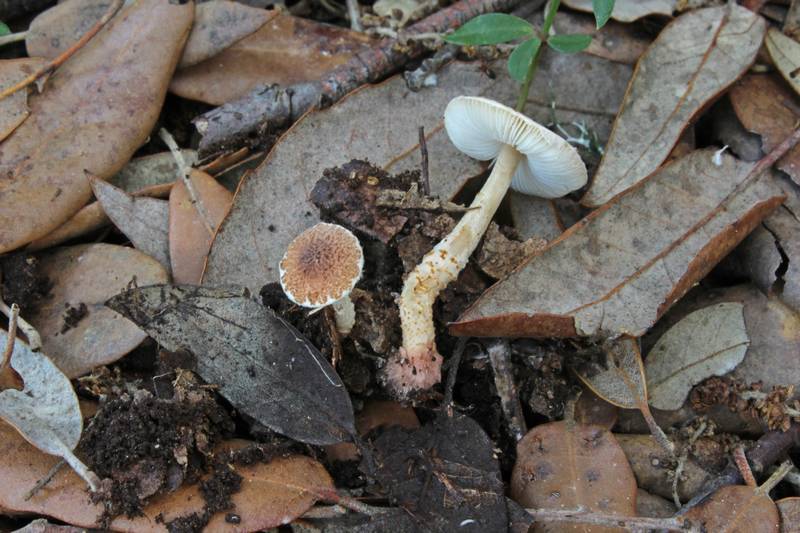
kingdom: Fungi
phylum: Basidiomycota
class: Agaricomycetes
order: Agaricales
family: Agaricaceae
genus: Lepiota
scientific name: Lepiota echinella
